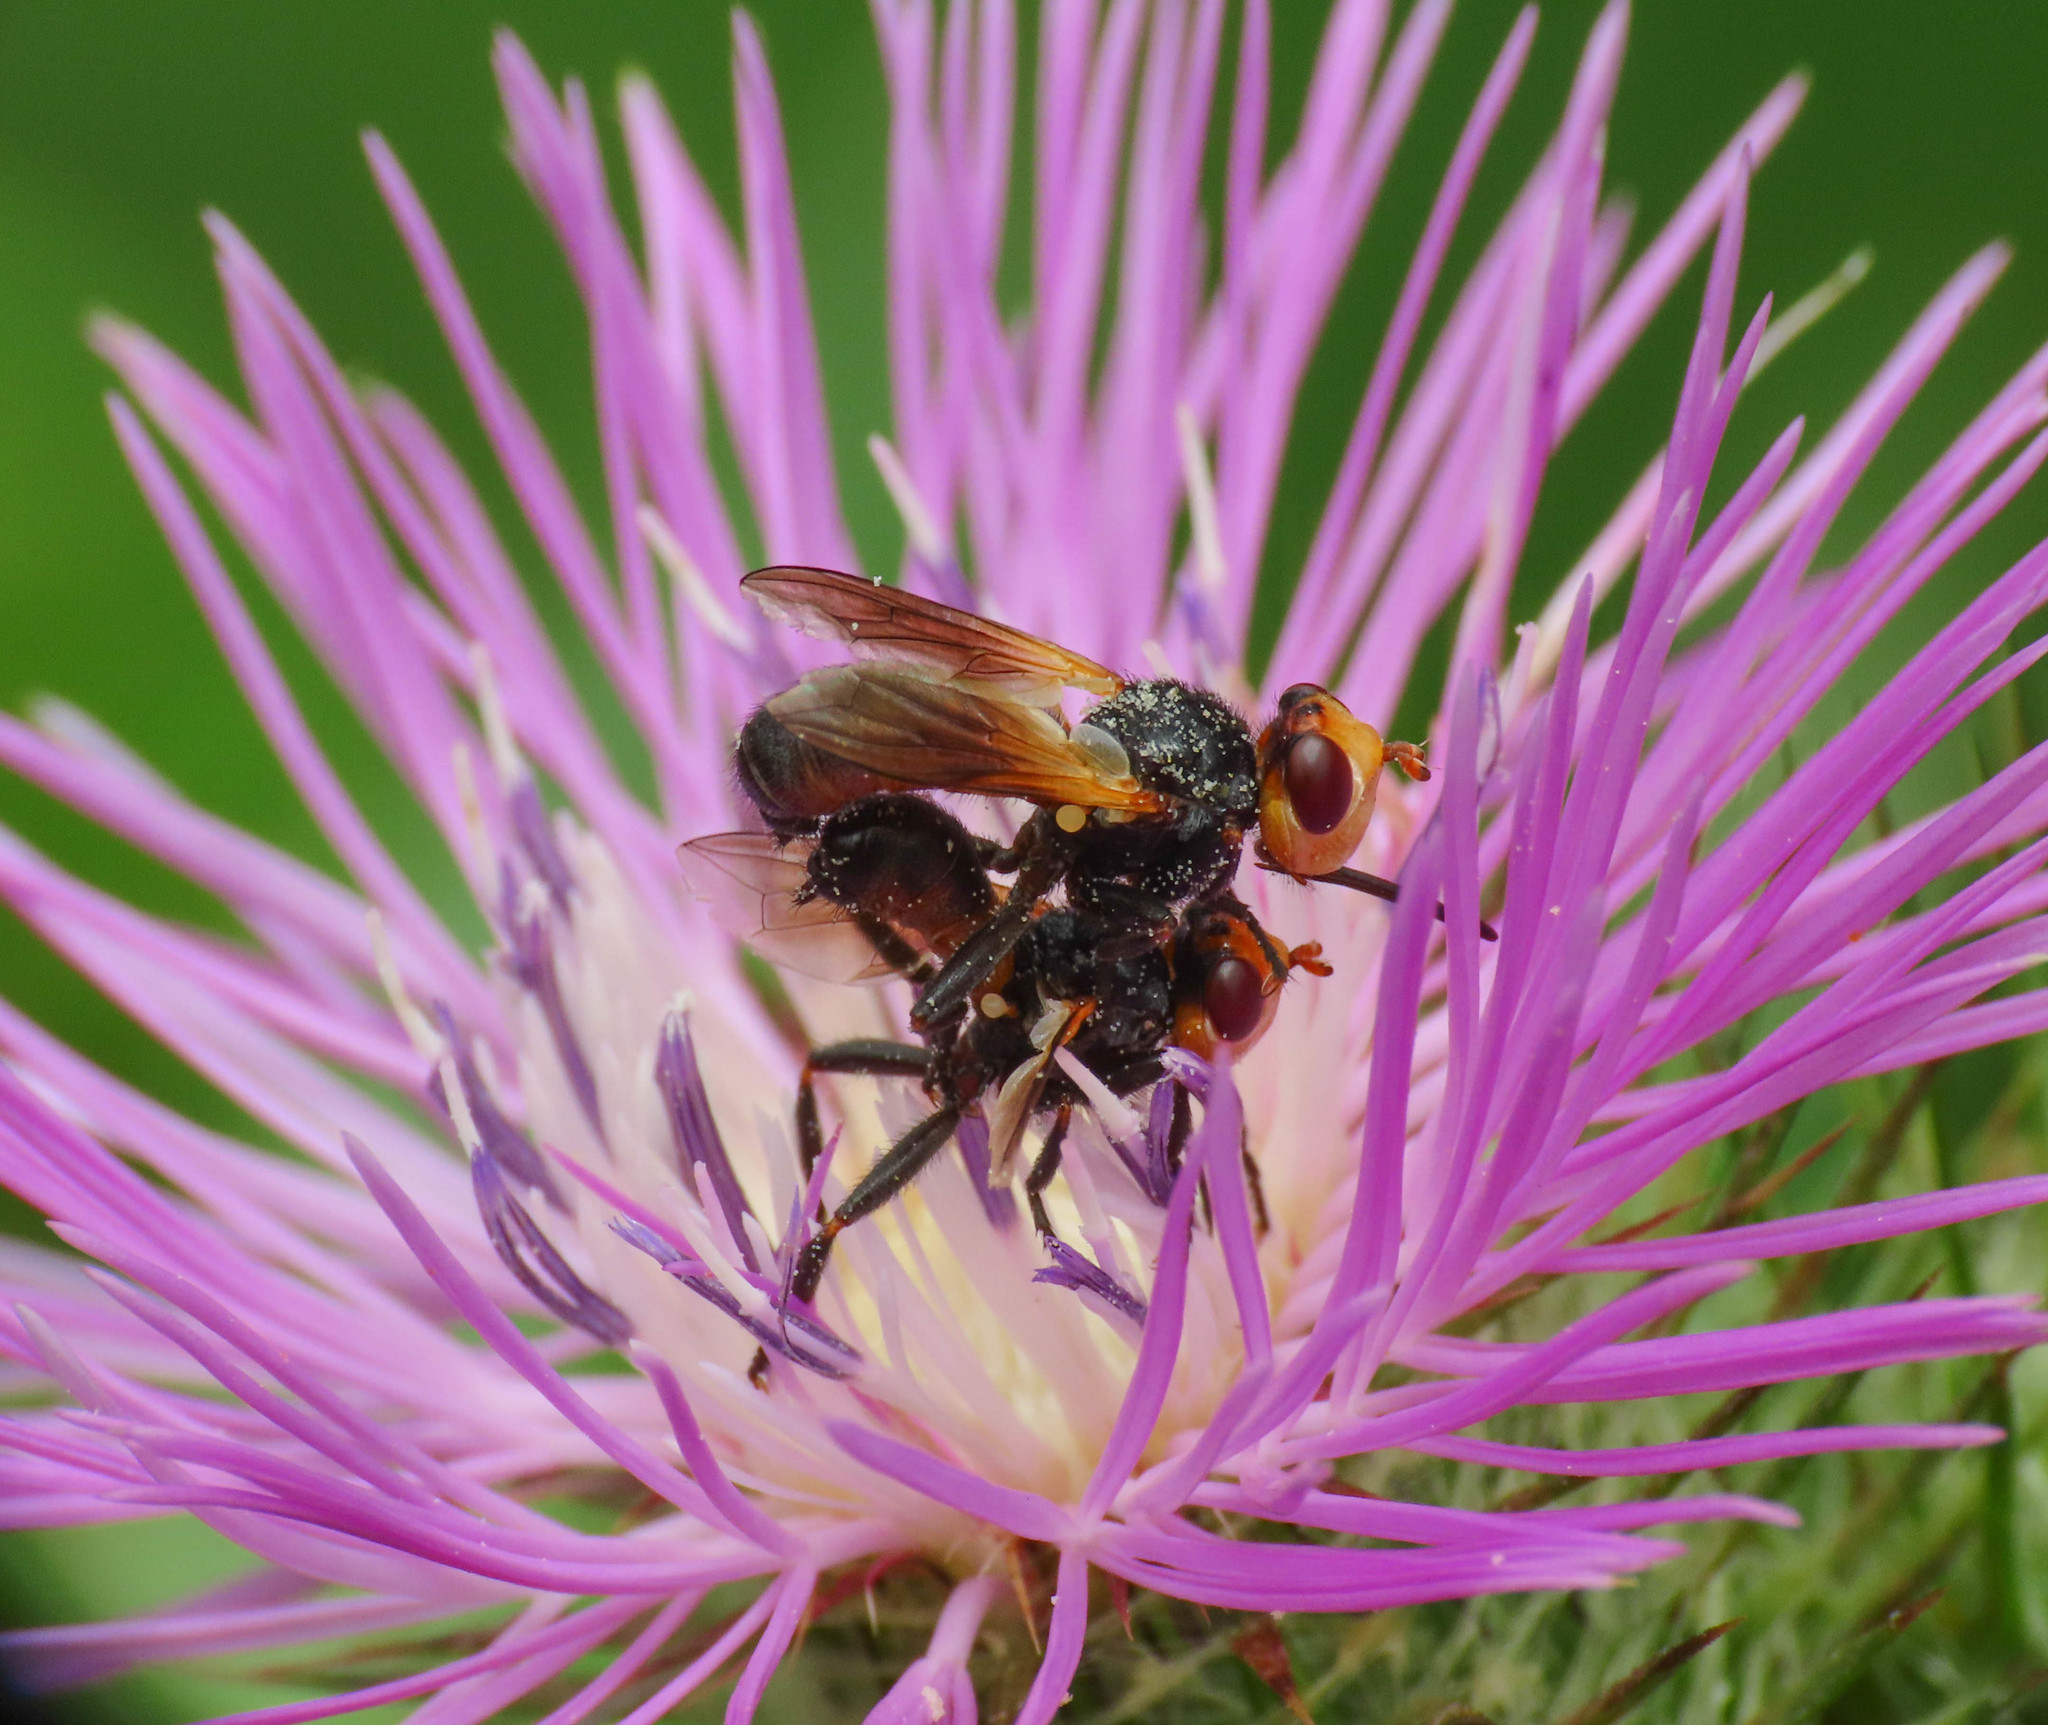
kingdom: Animalia
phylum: Arthropoda
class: Insecta
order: Diptera
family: Conopidae
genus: Melanosoma
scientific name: Melanosoma bicolor
